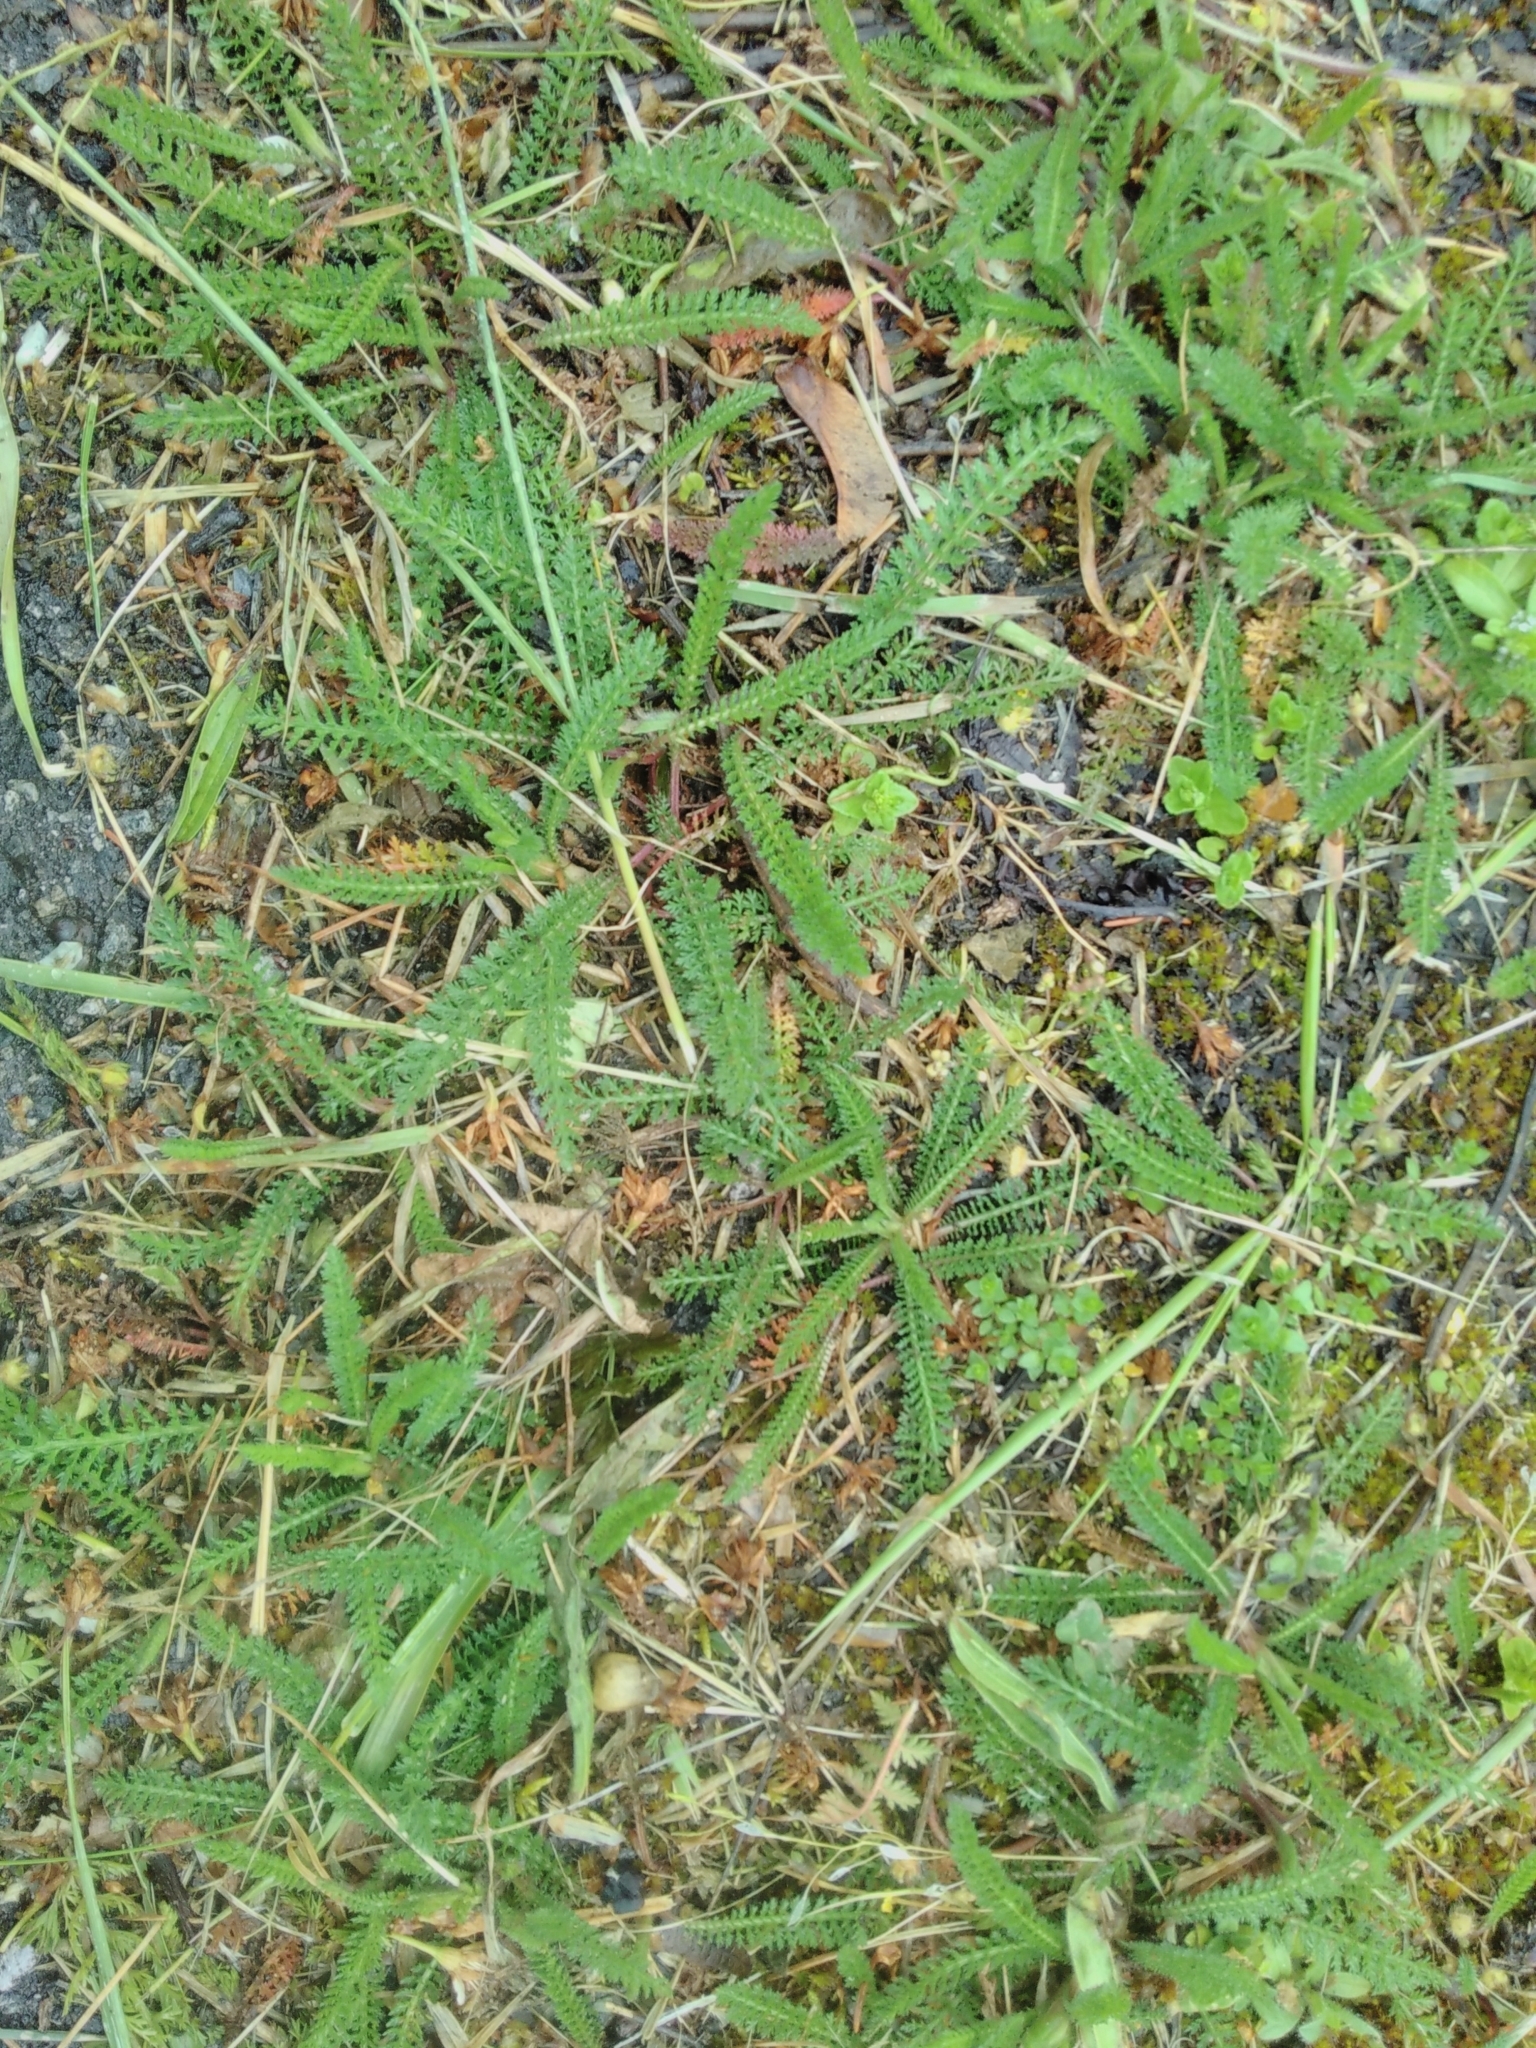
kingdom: Plantae
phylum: Tracheophyta
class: Magnoliopsida
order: Asterales
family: Asteraceae
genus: Achillea
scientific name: Achillea millefolium
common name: Yarrow
